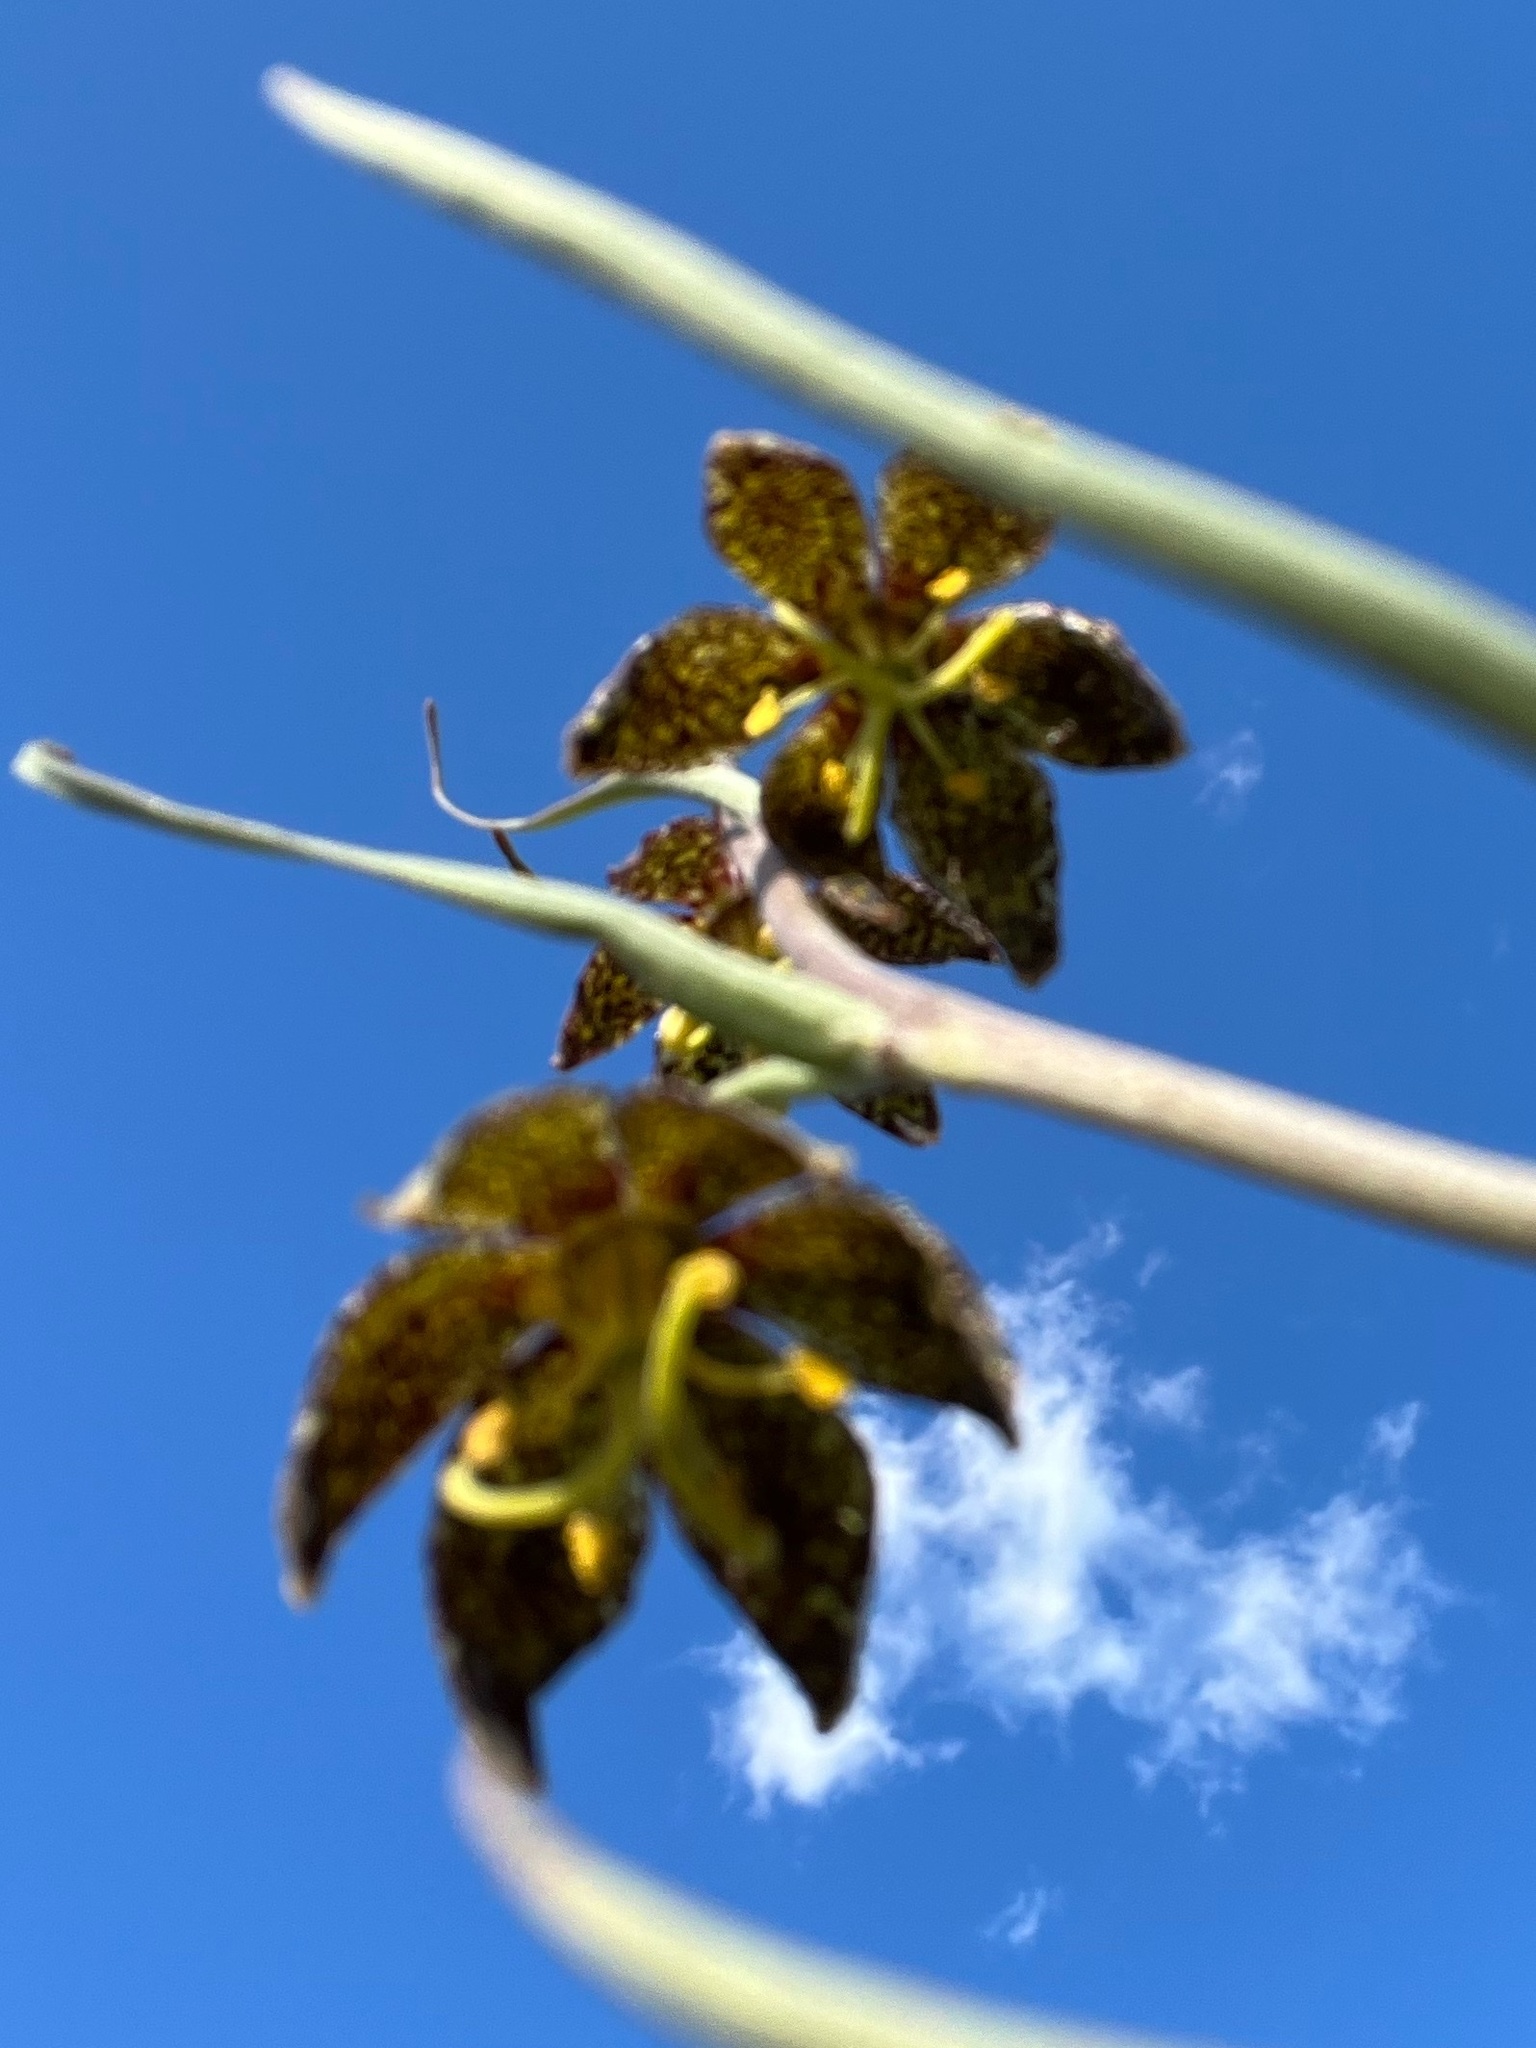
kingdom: Plantae
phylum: Tracheophyta
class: Liliopsida
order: Liliales
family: Liliaceae
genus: Fritillaria
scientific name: Fritillaria atropurpurea
